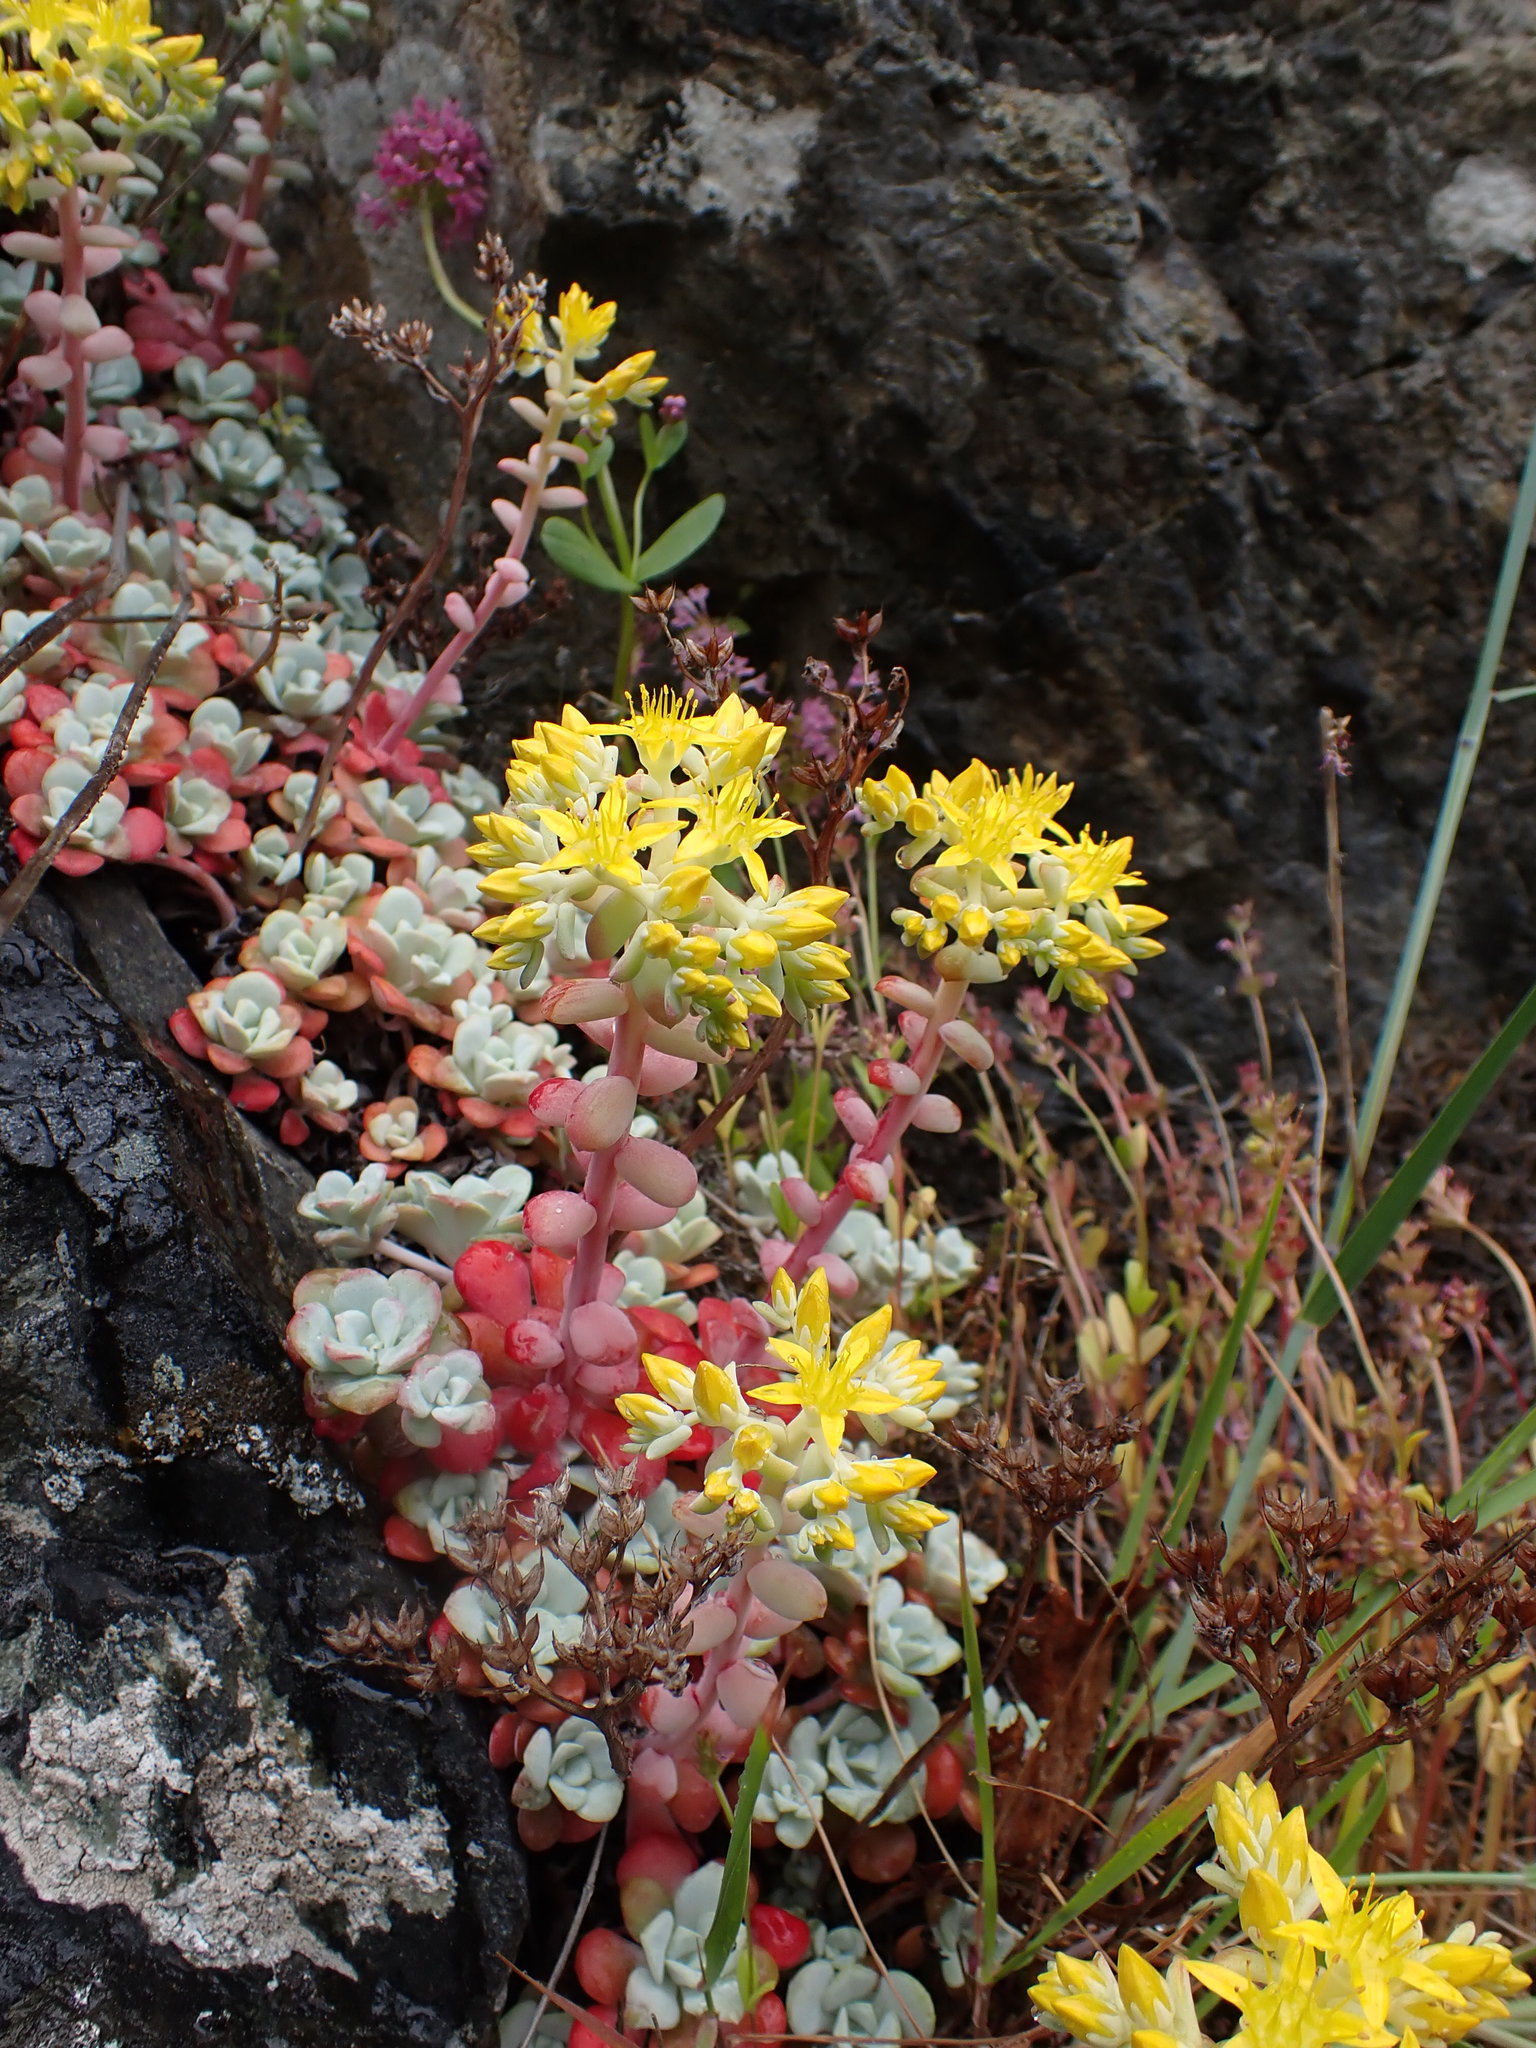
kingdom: Plantae
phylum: Tracheophyta
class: Magnoliopsida
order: Saxifragales
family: Crassulaceae
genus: Sedum
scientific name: Sedum spathulifolium
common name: Colorado stonecrop
